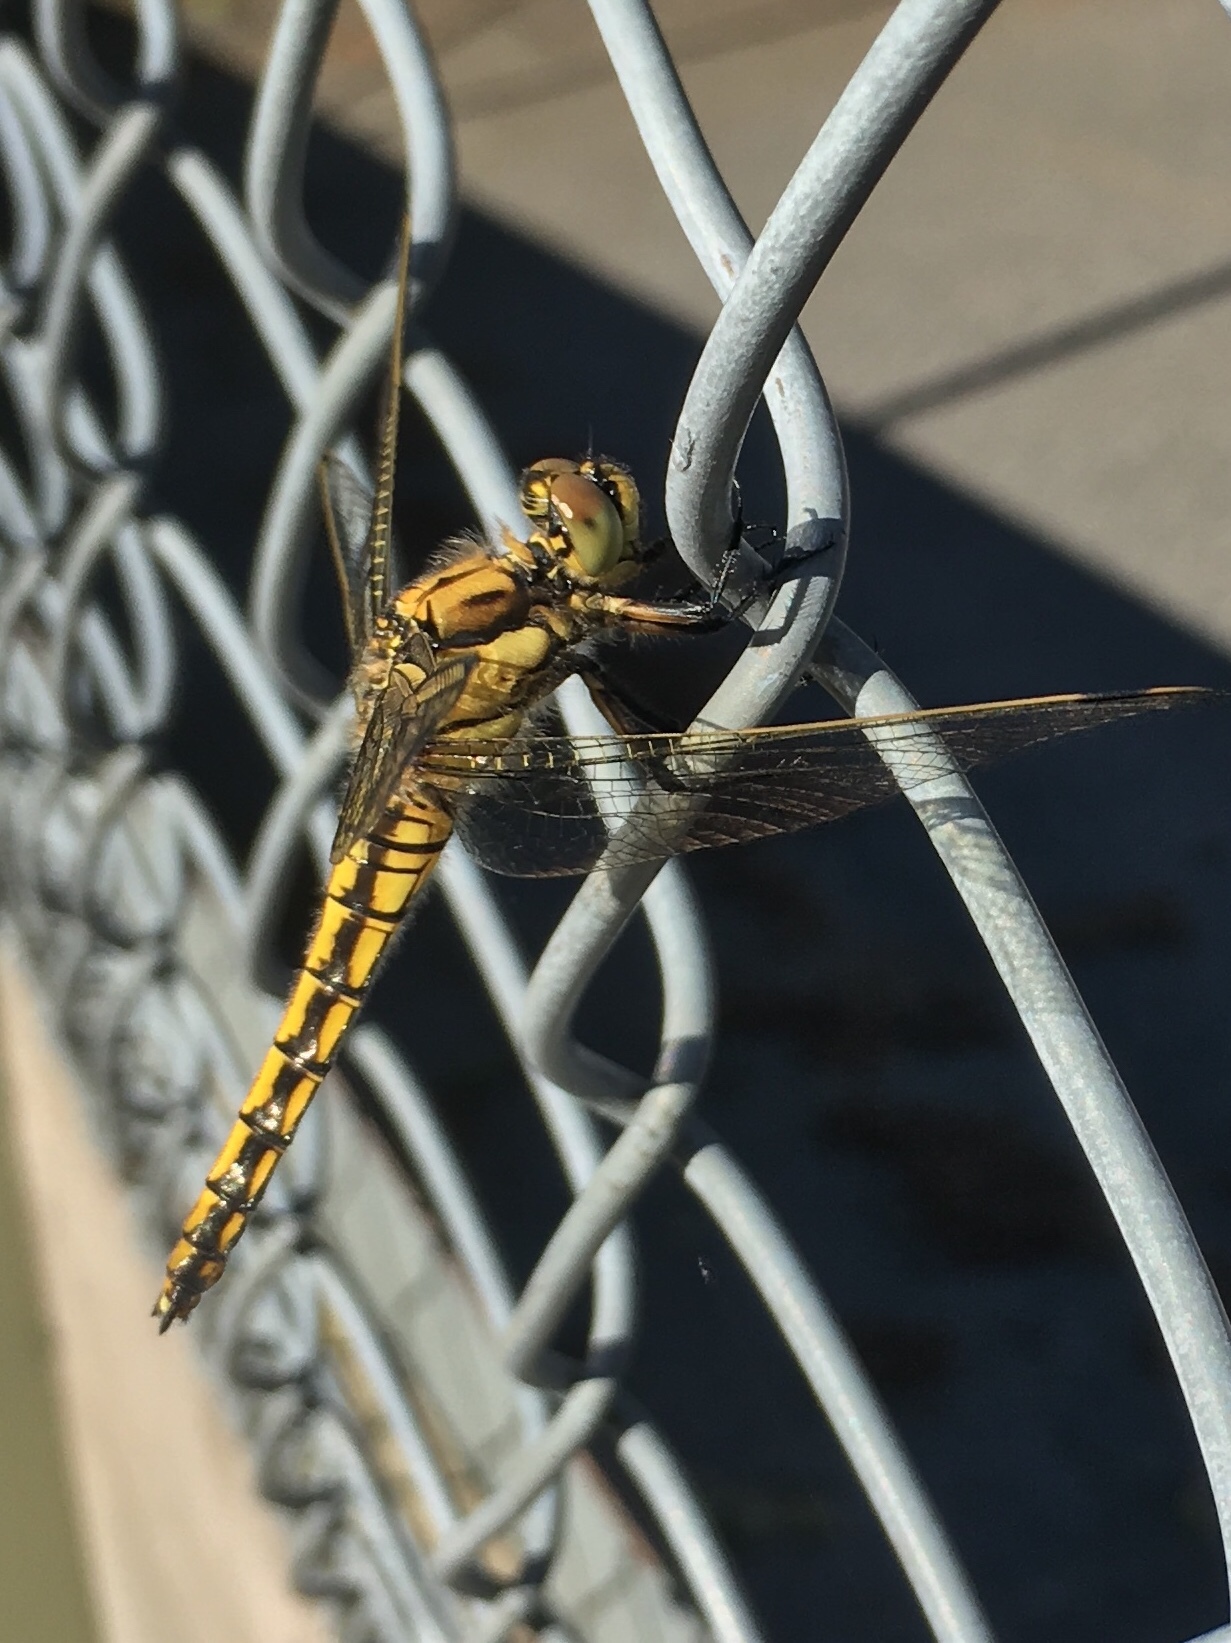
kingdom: Animalia
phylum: Arthropoda
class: Insecta
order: Odonata
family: Libellulidae
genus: Orthetrum
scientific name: Orthetrum cancellatum
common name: Black-tailed skimmer
